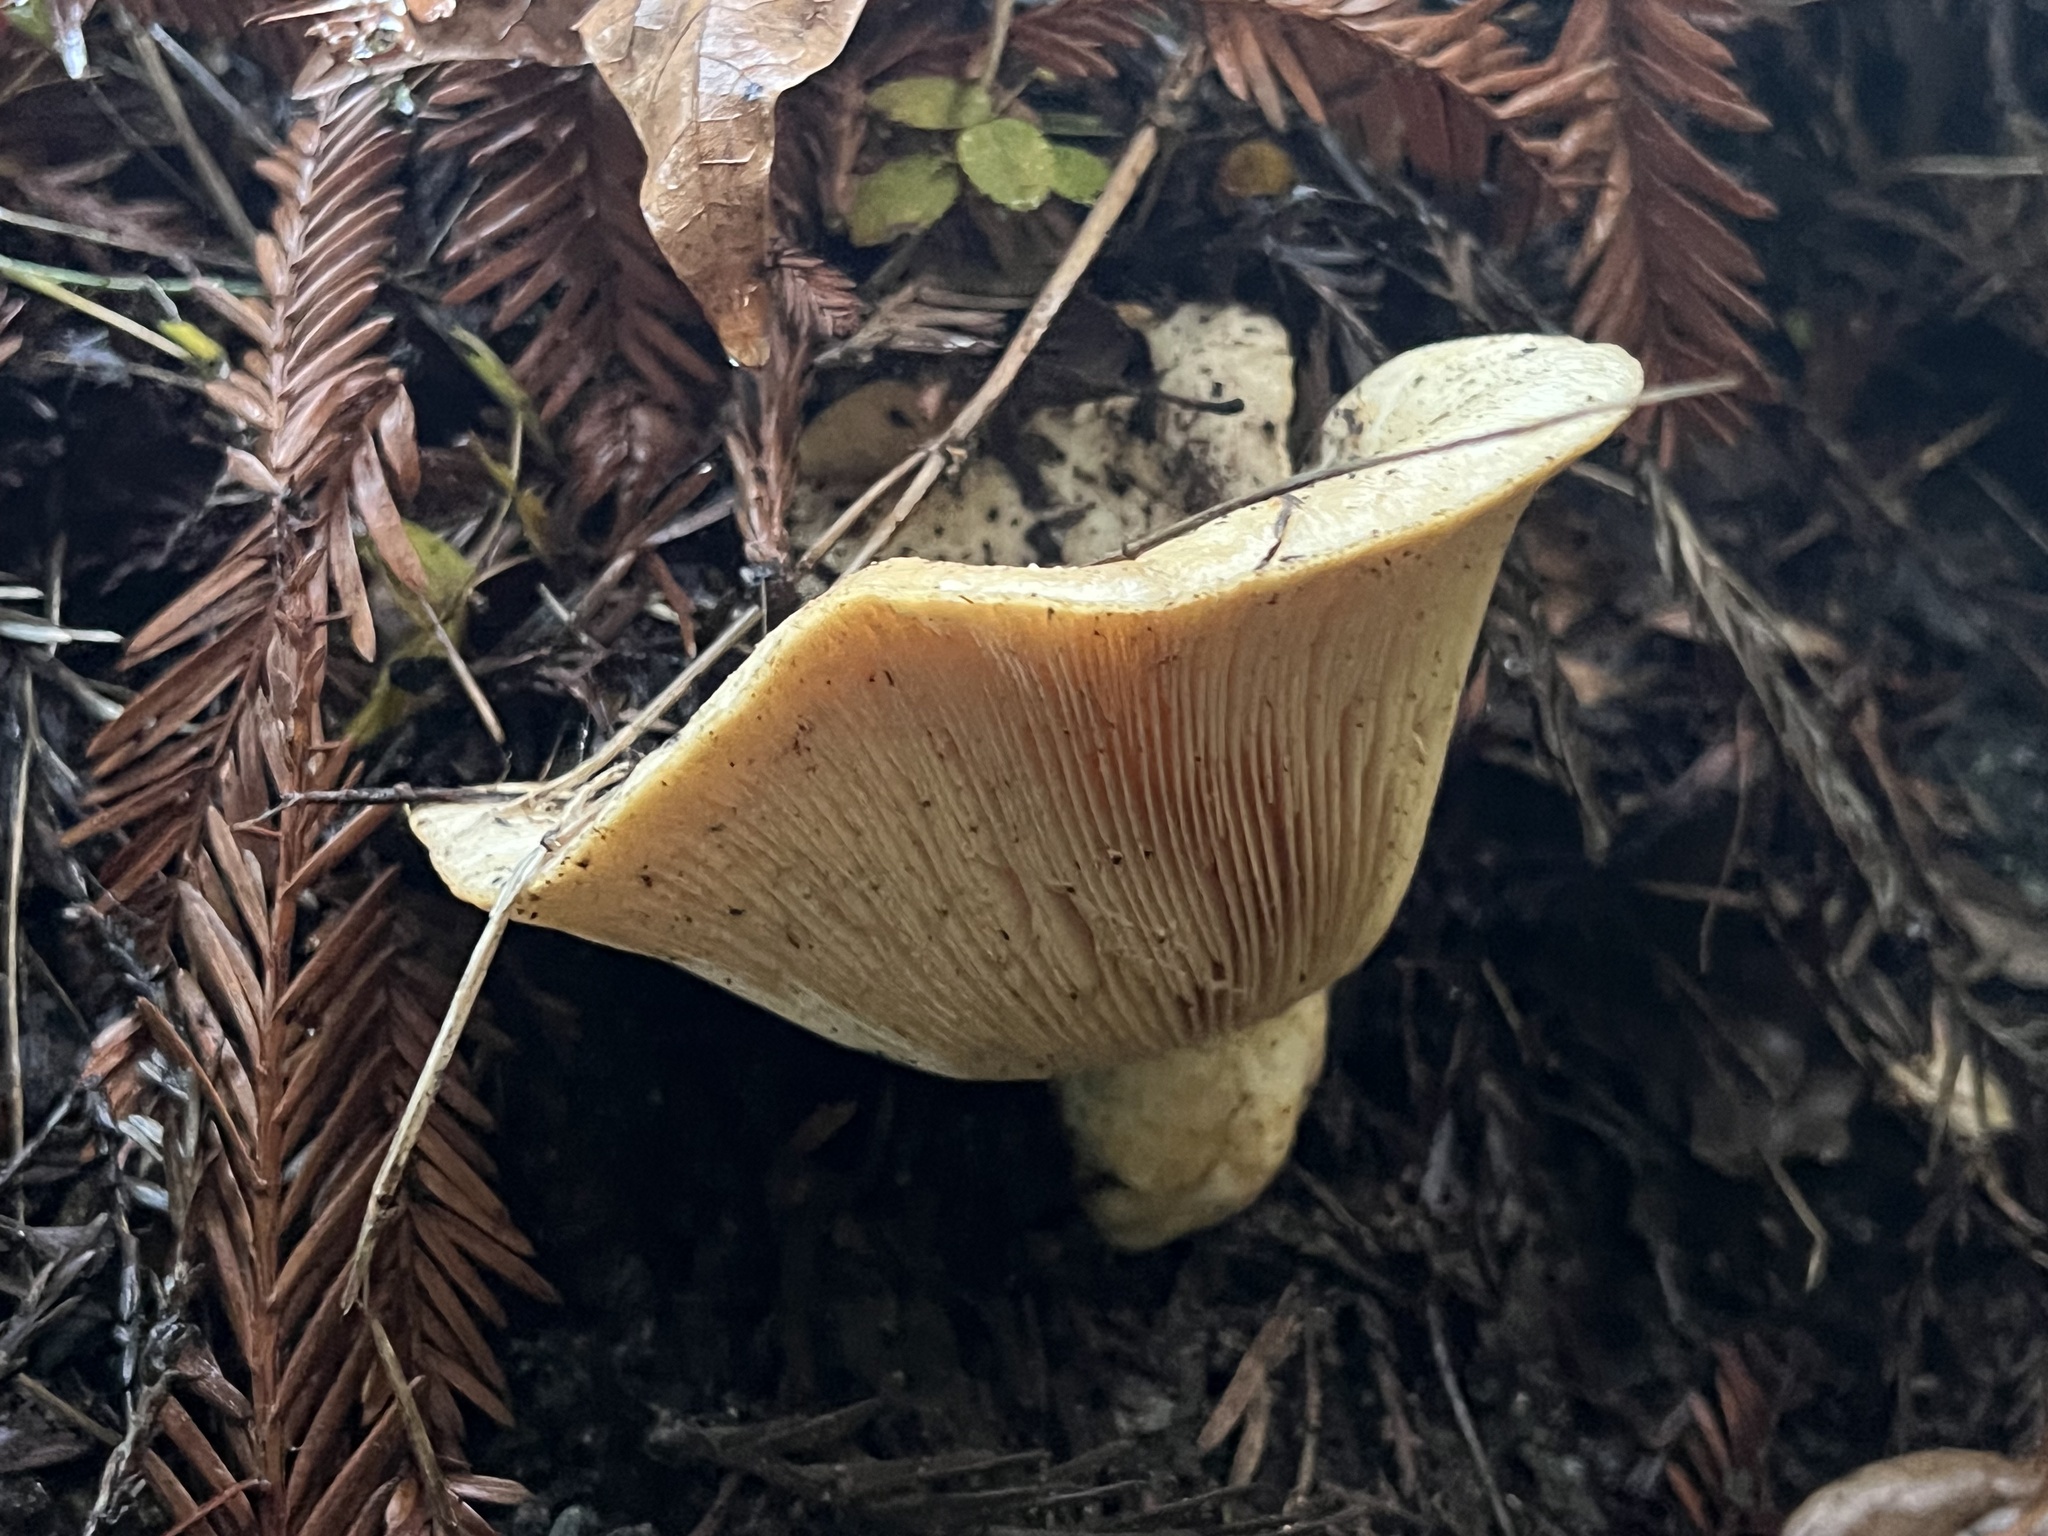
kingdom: Fungi
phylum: Basidiomycota
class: Agaricomycetes
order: Russulales
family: Russulaceae
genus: Lactarius
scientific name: Lactarius alnicola
